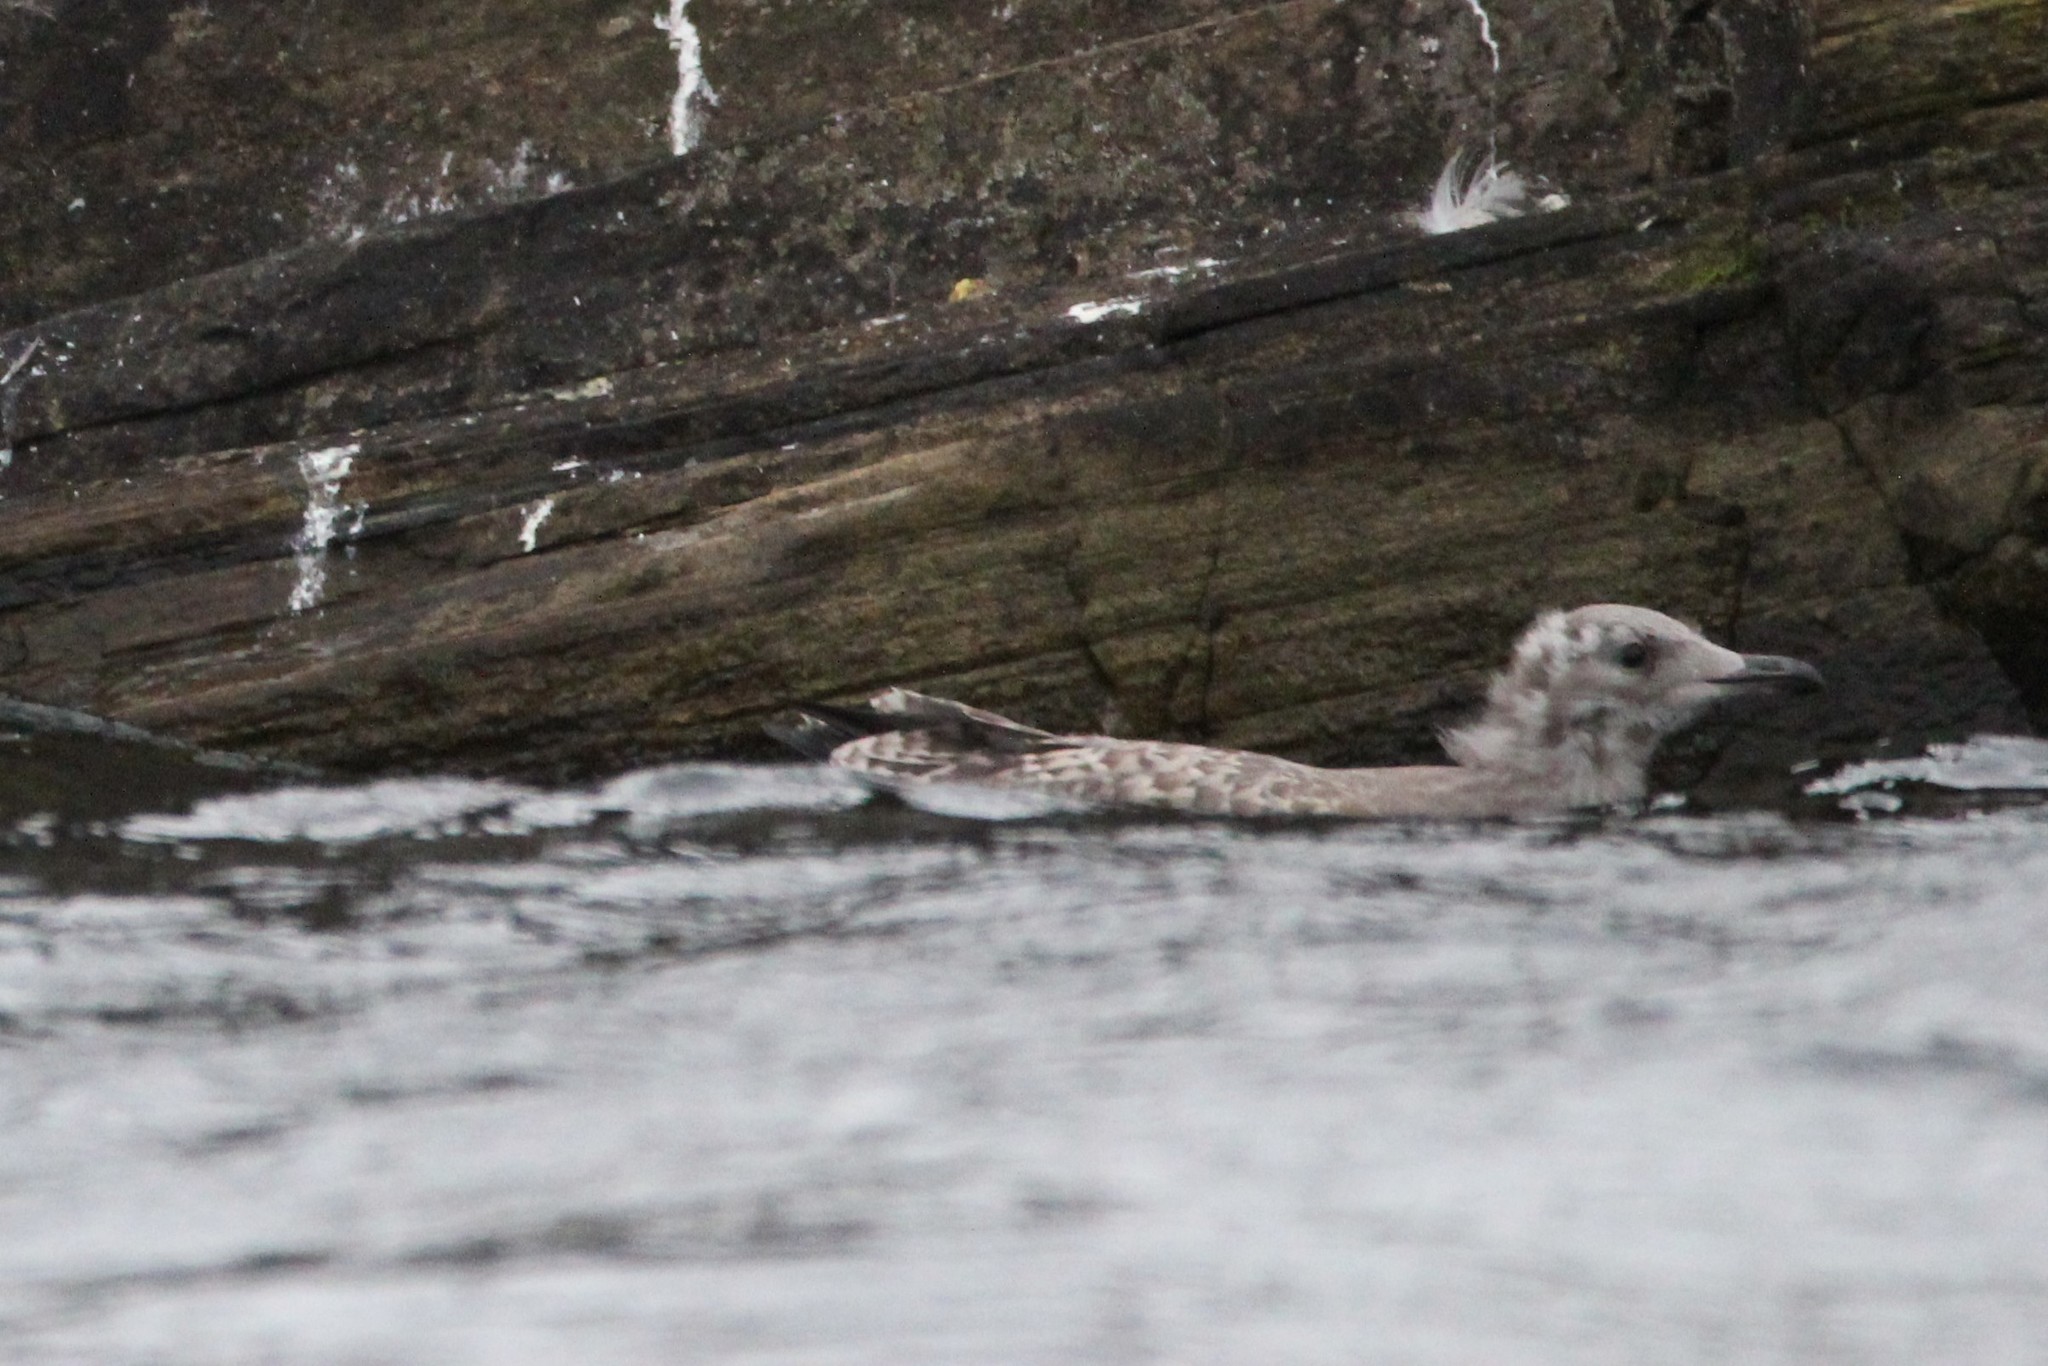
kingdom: Animalia
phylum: Chordata
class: Aves
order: Charadriiformes
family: Laridae
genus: Larus
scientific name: Larus argentatus
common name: Herring gull
